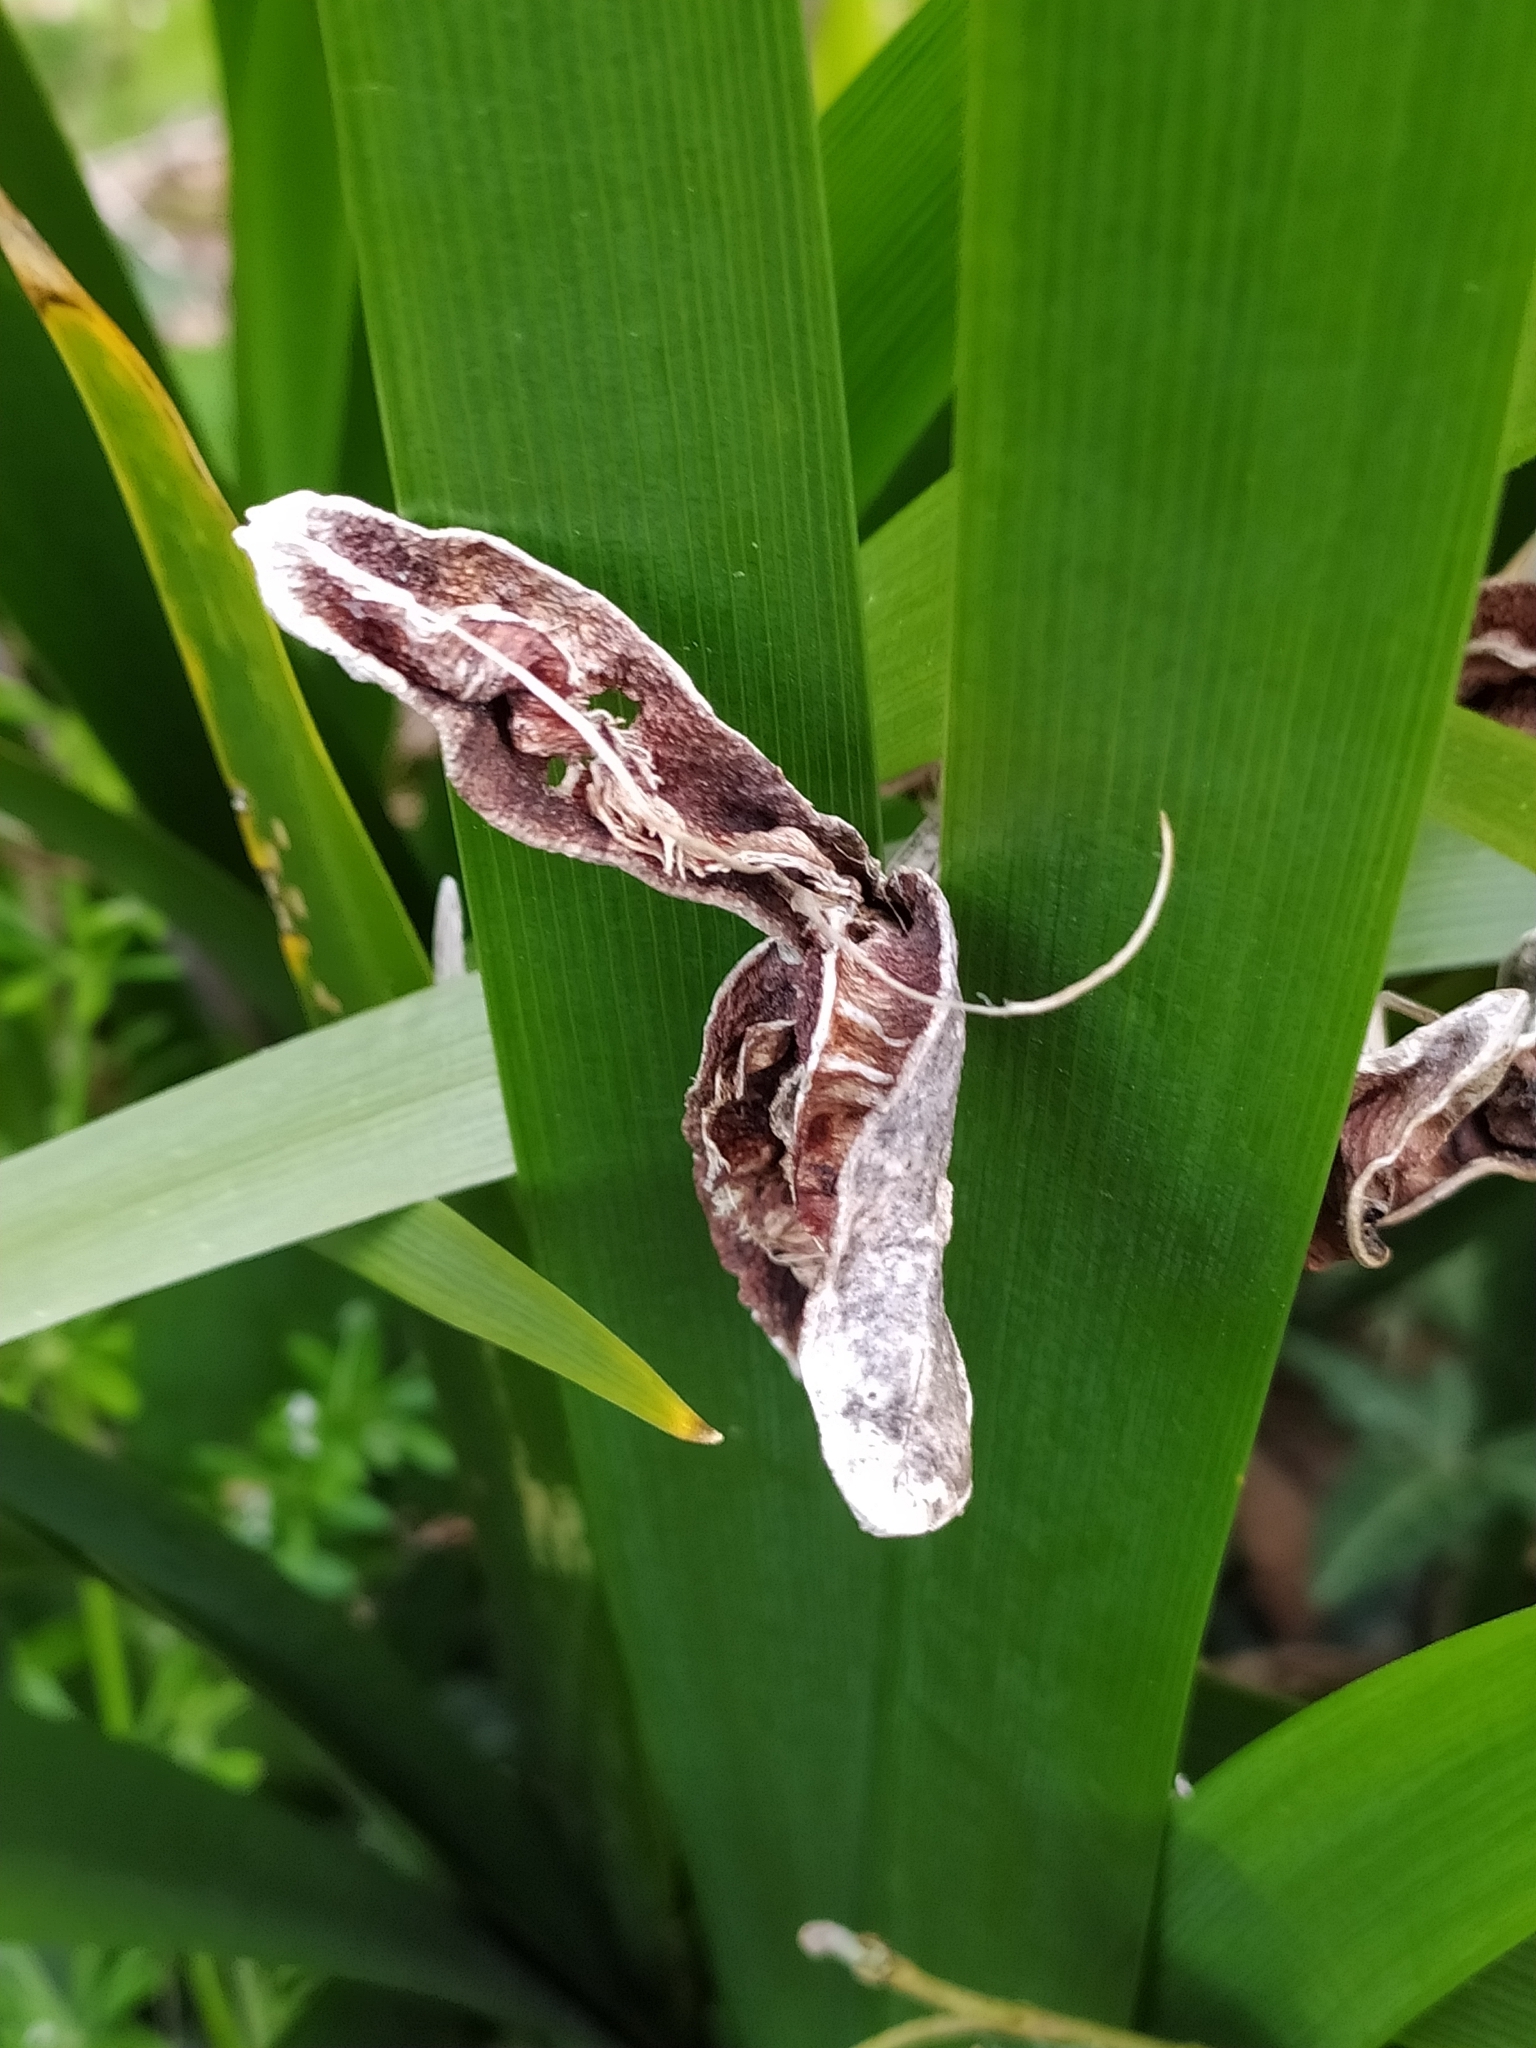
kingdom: Plantae
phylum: Tracheophyta
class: Liliopsida
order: Asparagales
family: Iridaceae
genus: Iris
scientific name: Iris foetidissima
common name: Stinking iris
